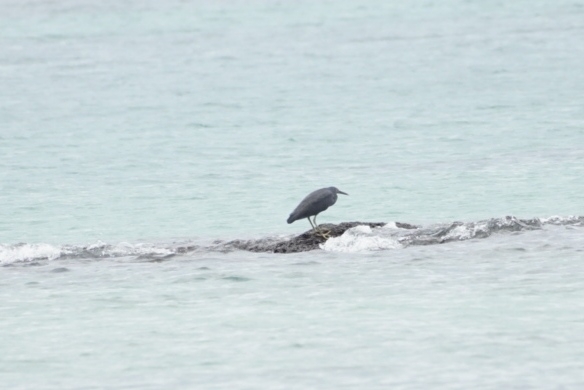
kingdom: Animalia
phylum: Chordata
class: Aves
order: Pelecaniformes
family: Ardeidae
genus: Egretta
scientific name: Egretta sacra
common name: Pacific reef heron
